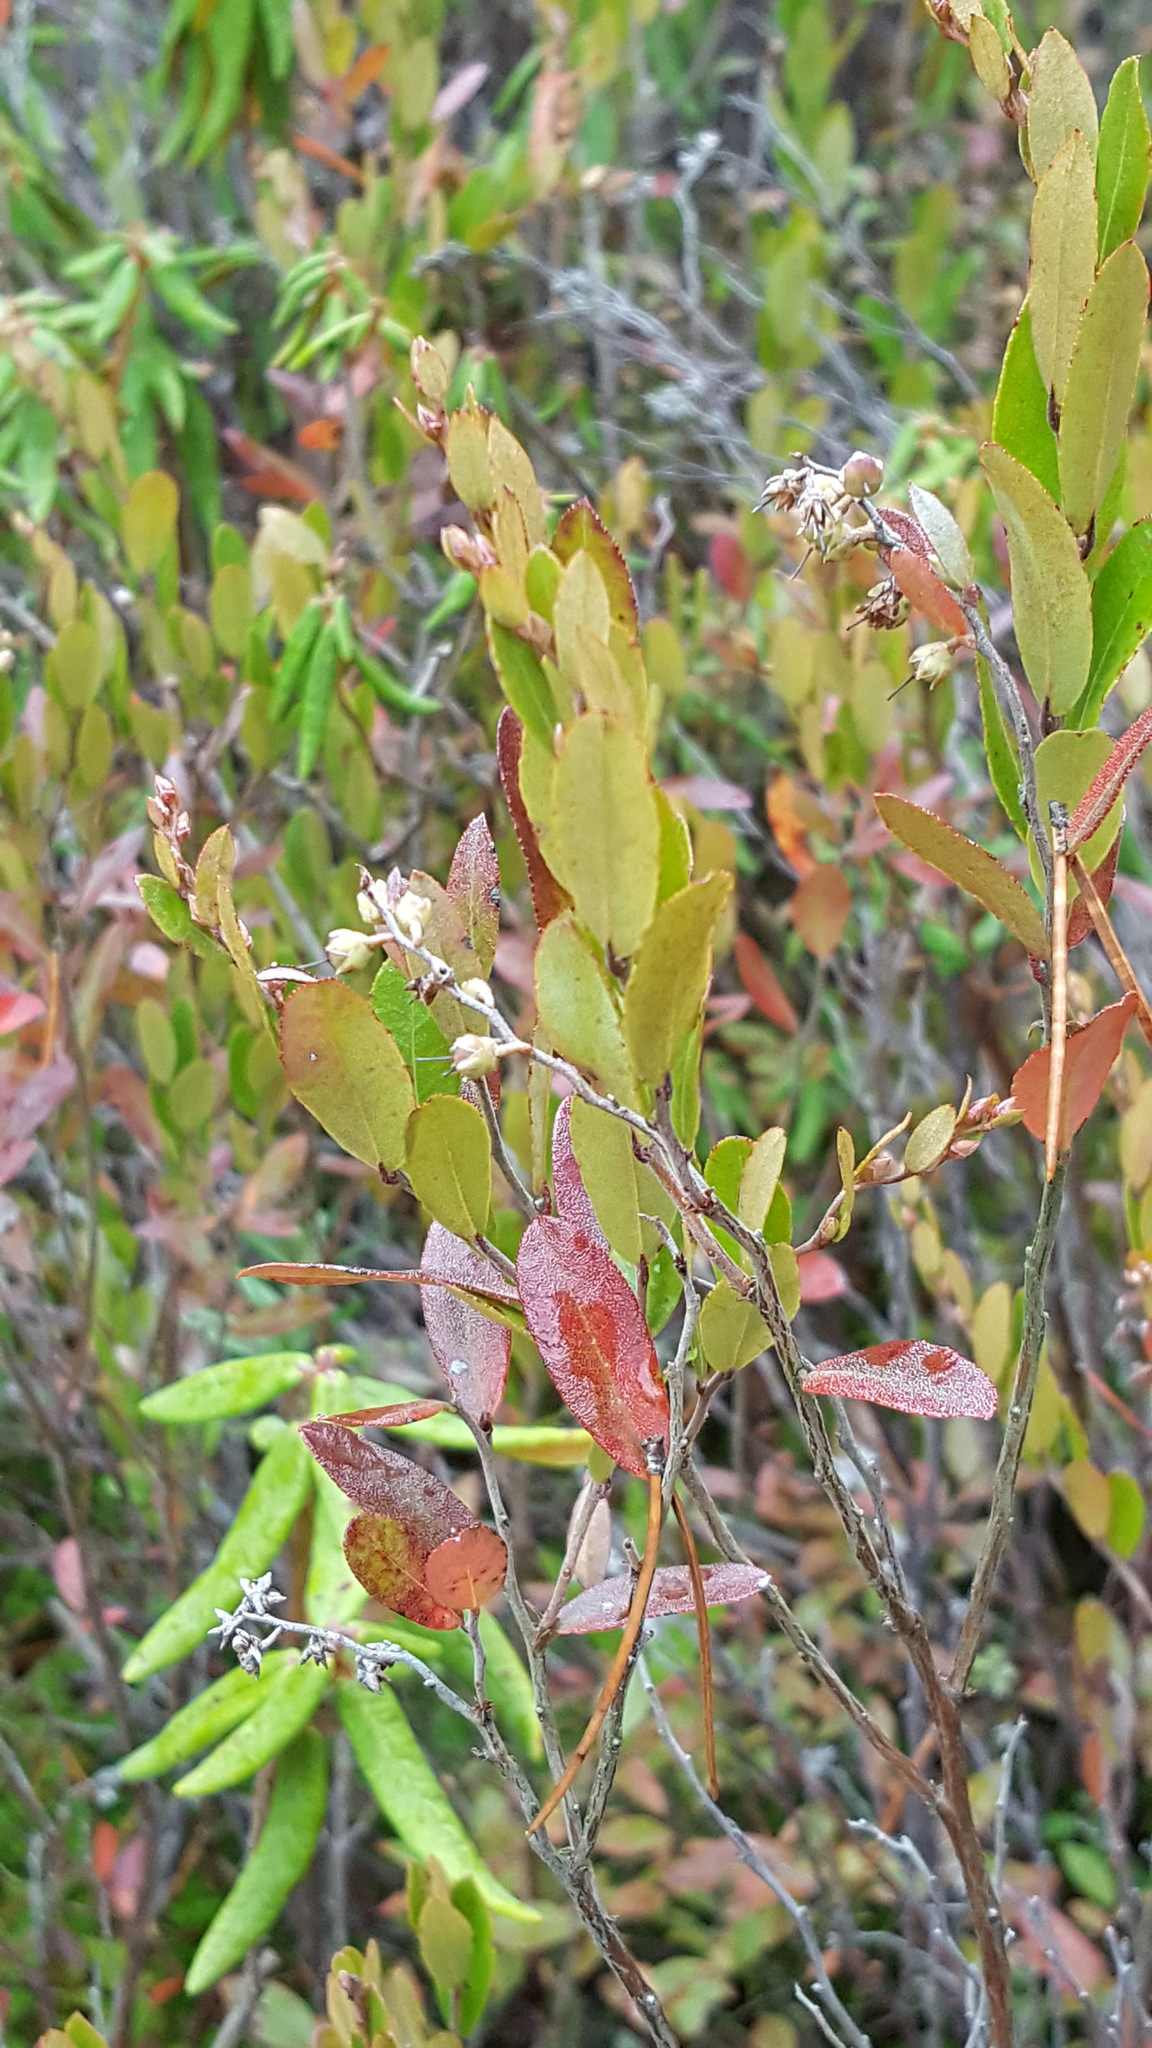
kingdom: Plantae
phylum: Tracheophyta
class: Magnoliopsida
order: Ericales
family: Ericaceae
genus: Chamaedaphne
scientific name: Chamaedaphne calyculata
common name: Leatherleaf
